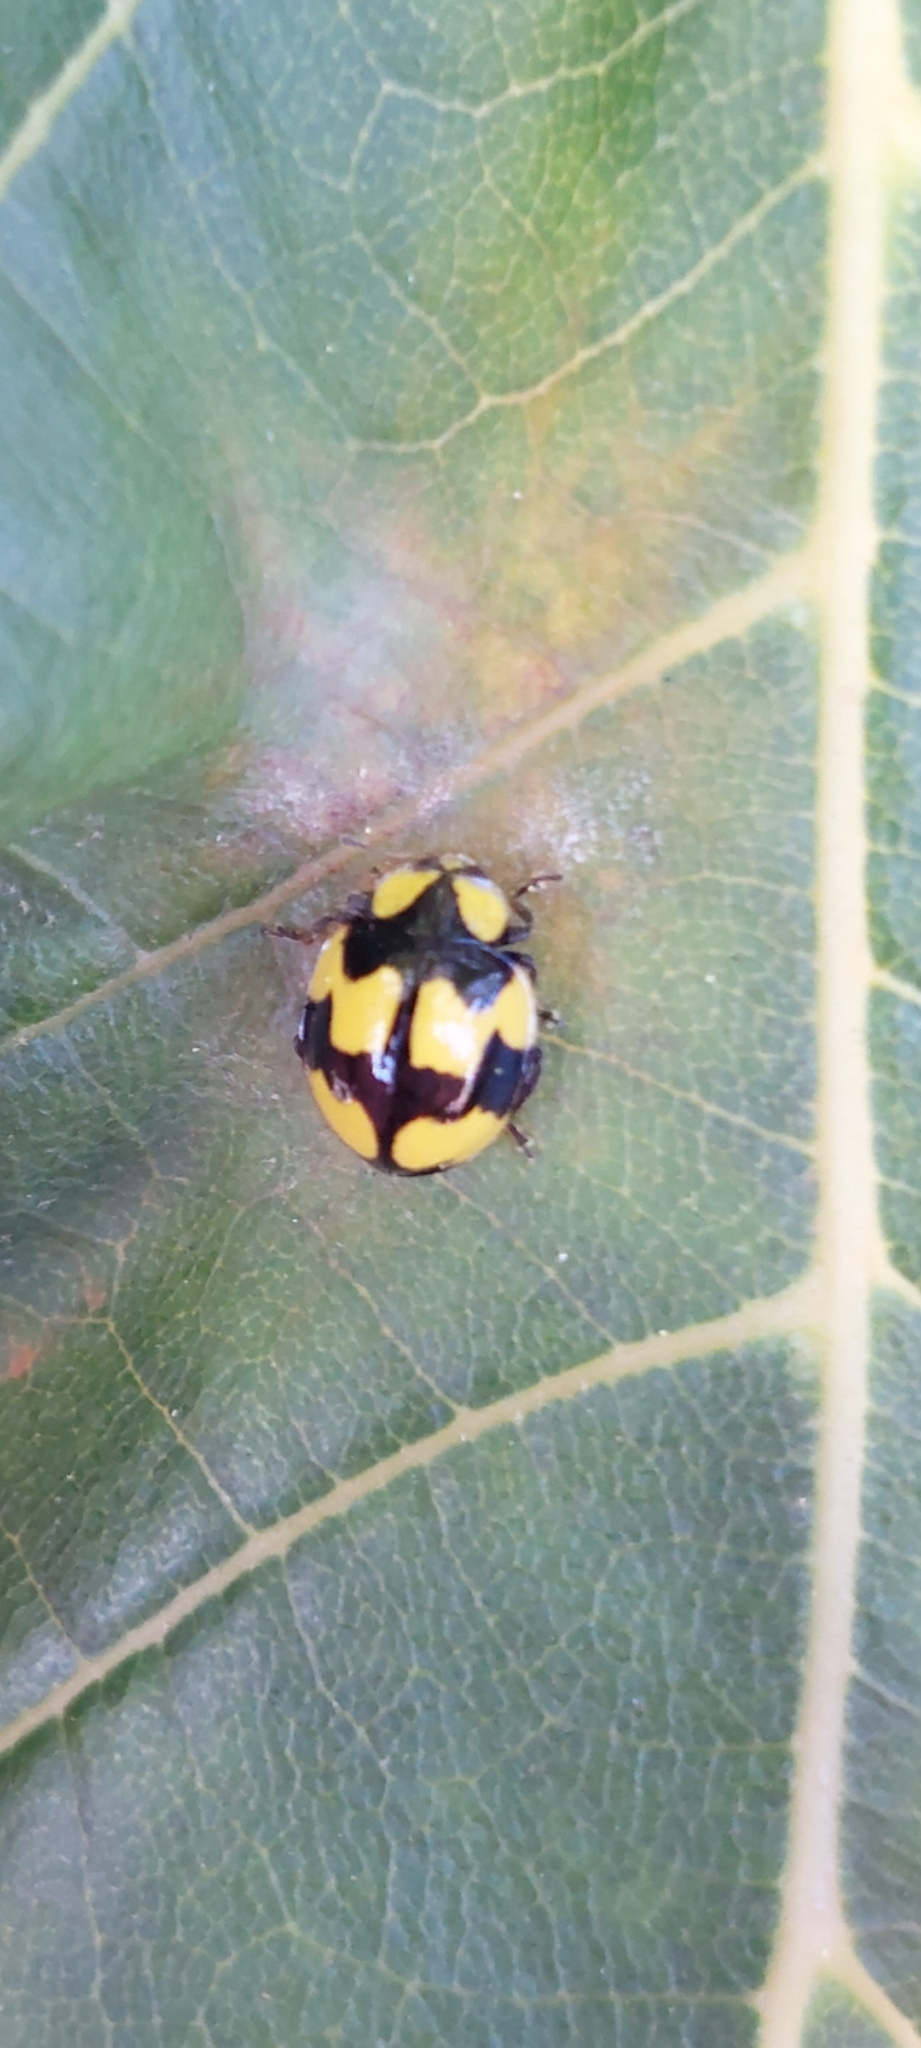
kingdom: Animalia
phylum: Arthropoda
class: Insecta
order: Coleoptera
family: Coccinellidae
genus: Illeis
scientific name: Illeis galbula
